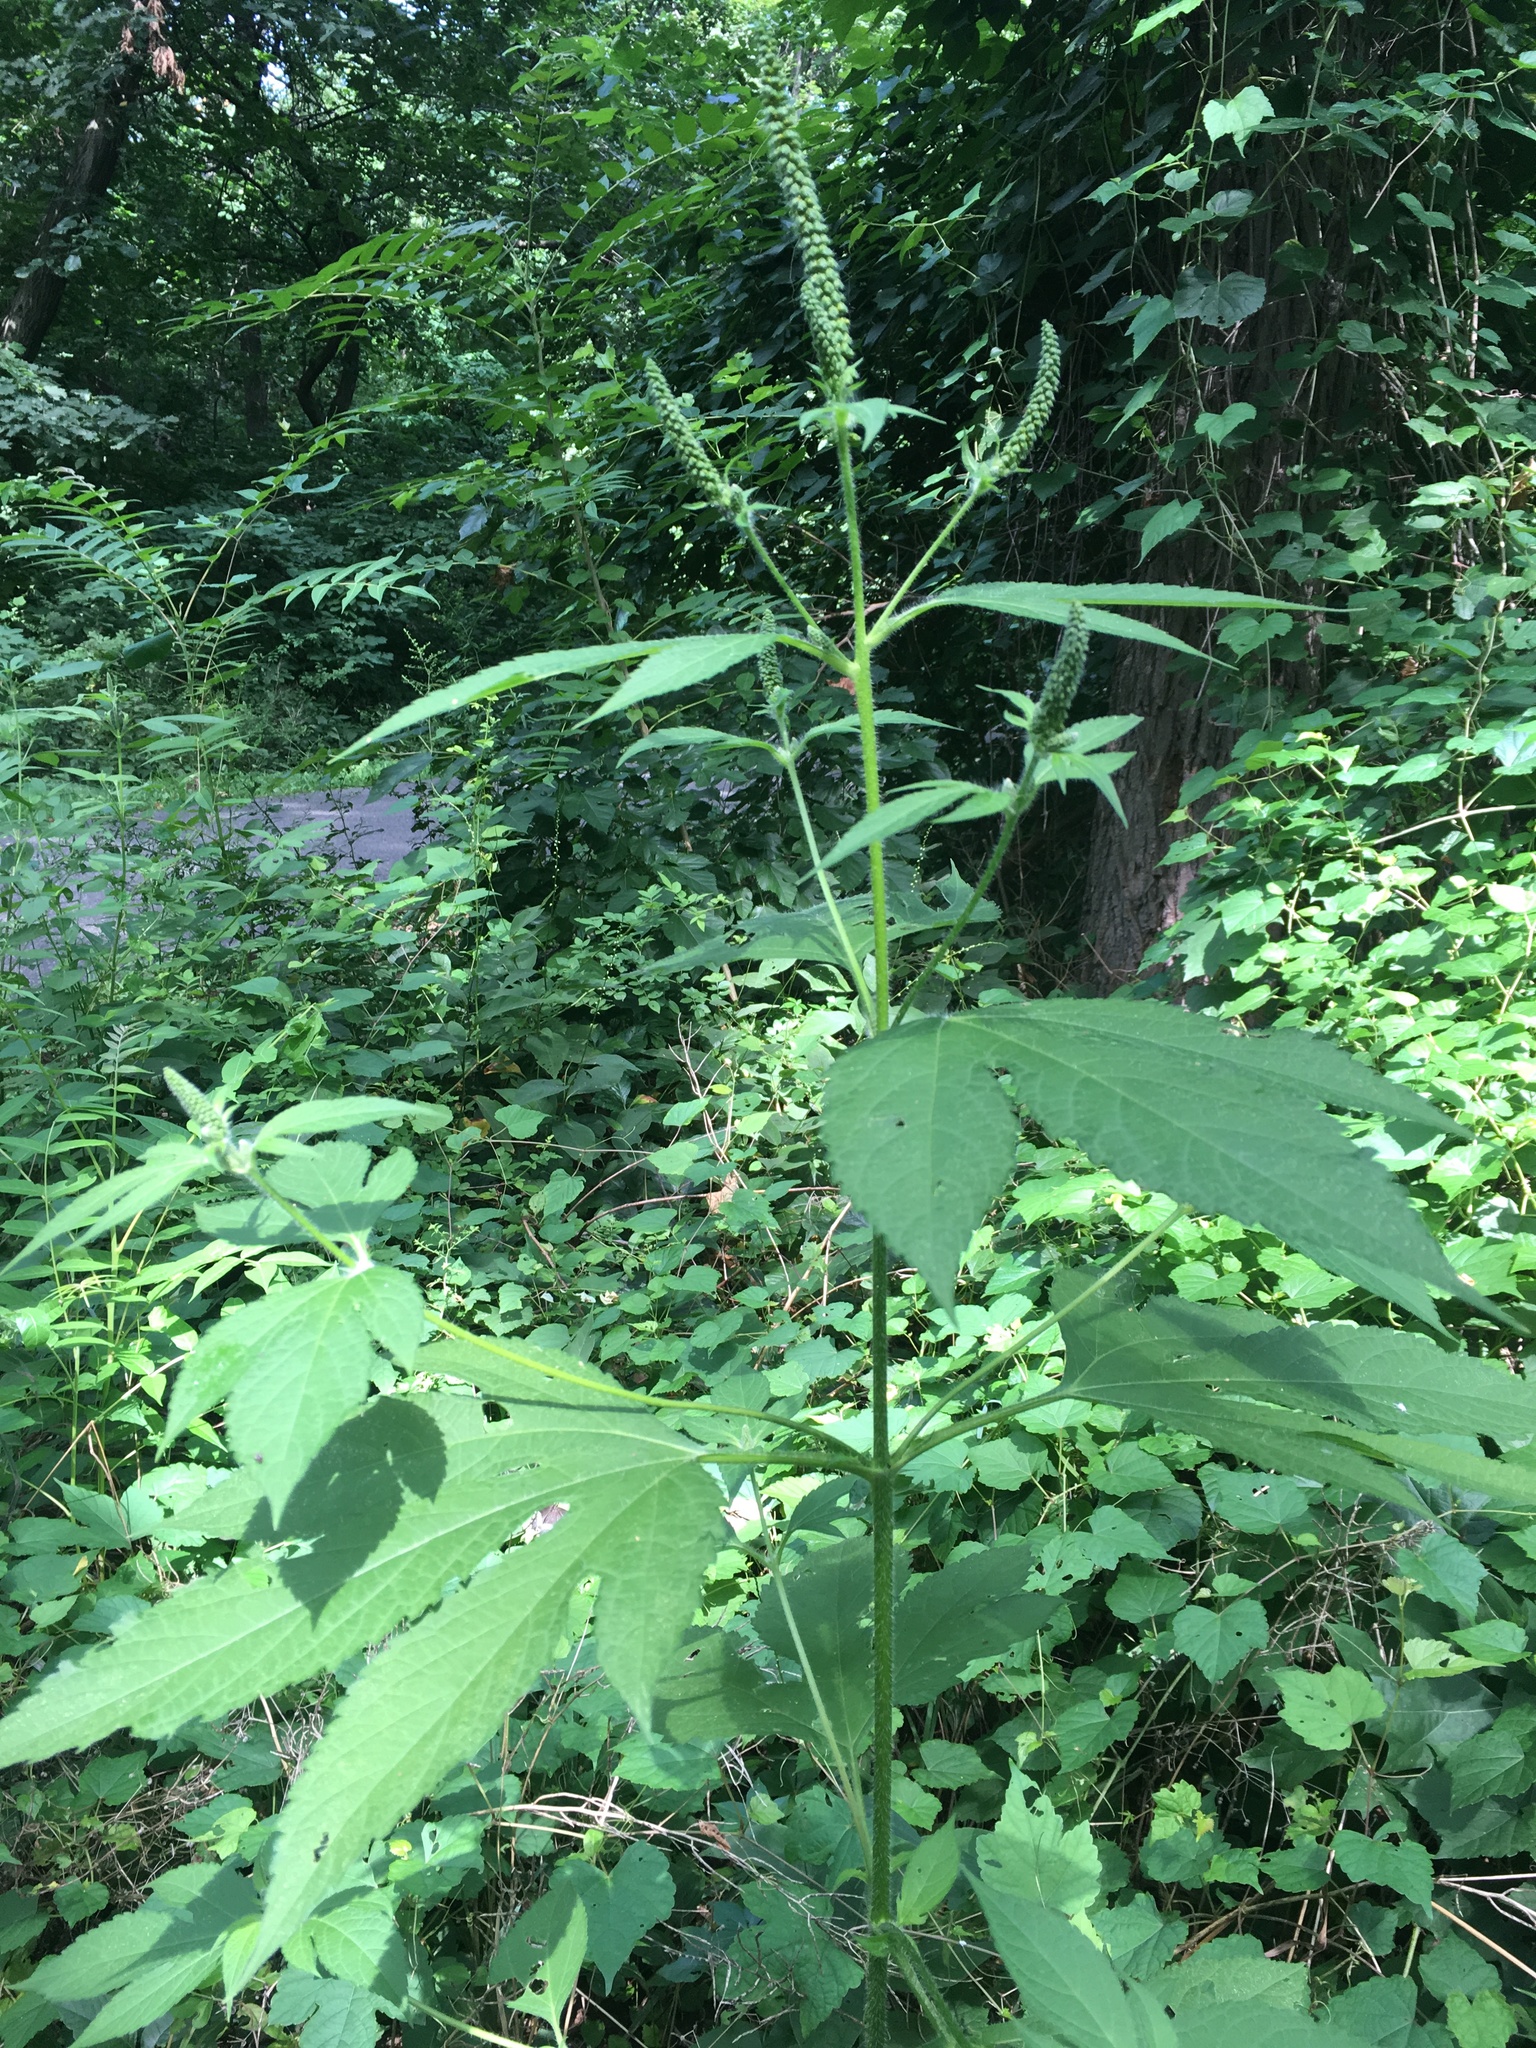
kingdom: Plantae
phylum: Tracheophyta
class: Magnoliopsida
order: Asterales
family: Asteraceae
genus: Ambrosia
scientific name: Ambrosia trifida
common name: Giant ragweed
